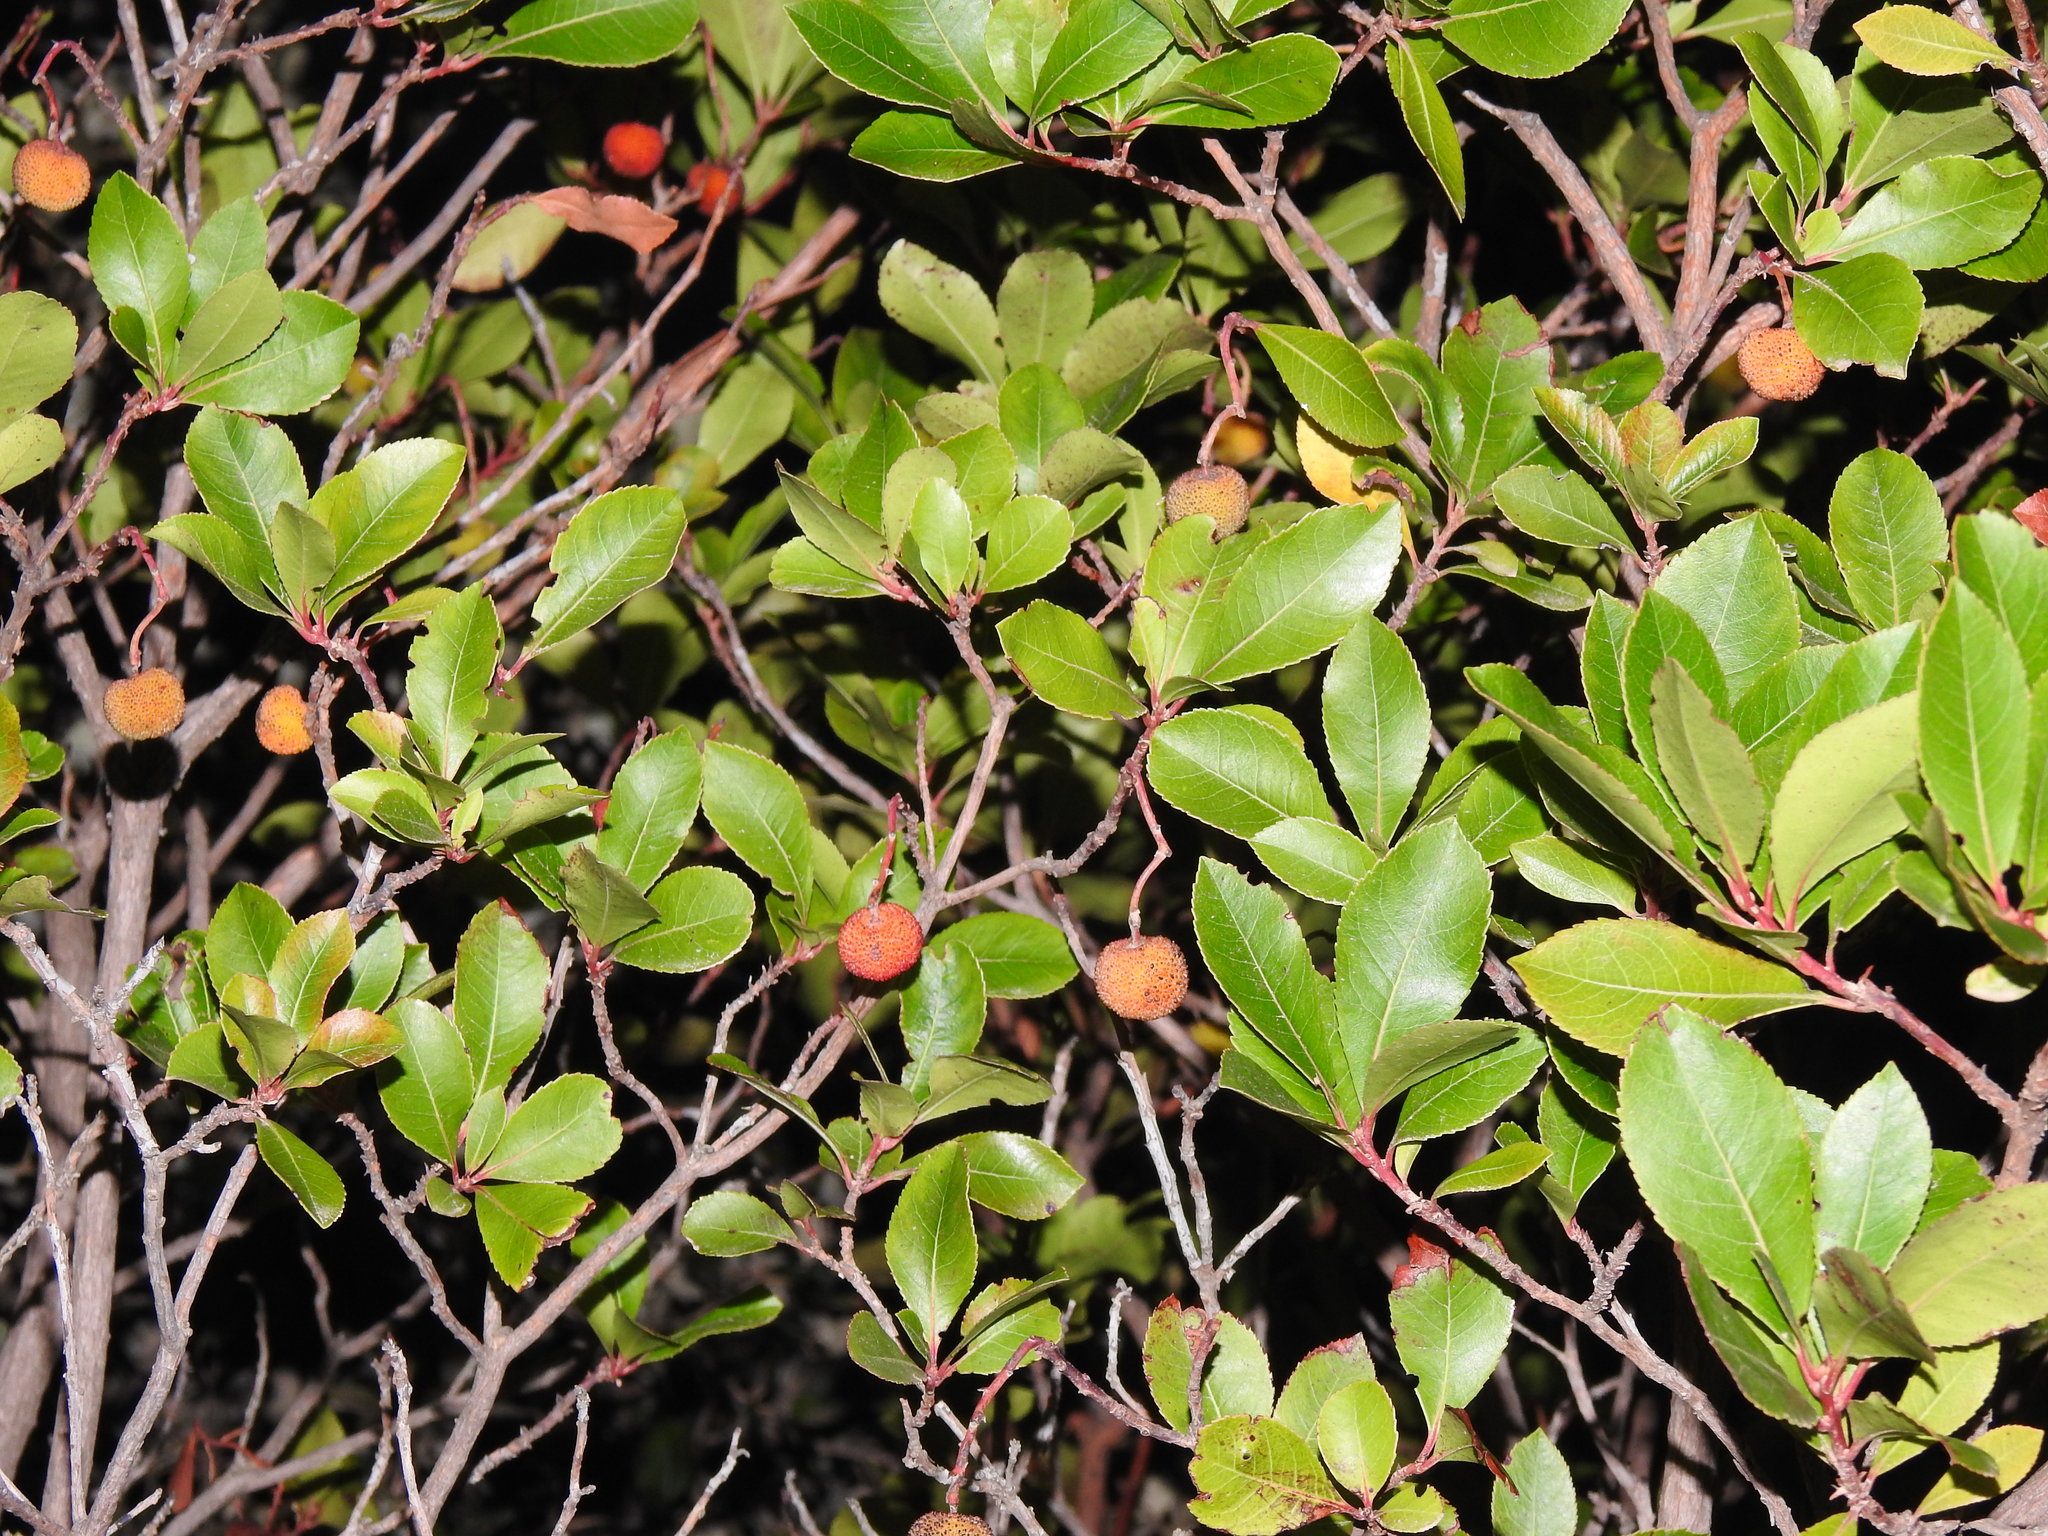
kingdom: Plantae
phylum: Tracheophyta
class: Magnoliopsida
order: Ericales
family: Ericaceae
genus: Arbutus
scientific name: Arbutus unedo
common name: Strawberry-tree
